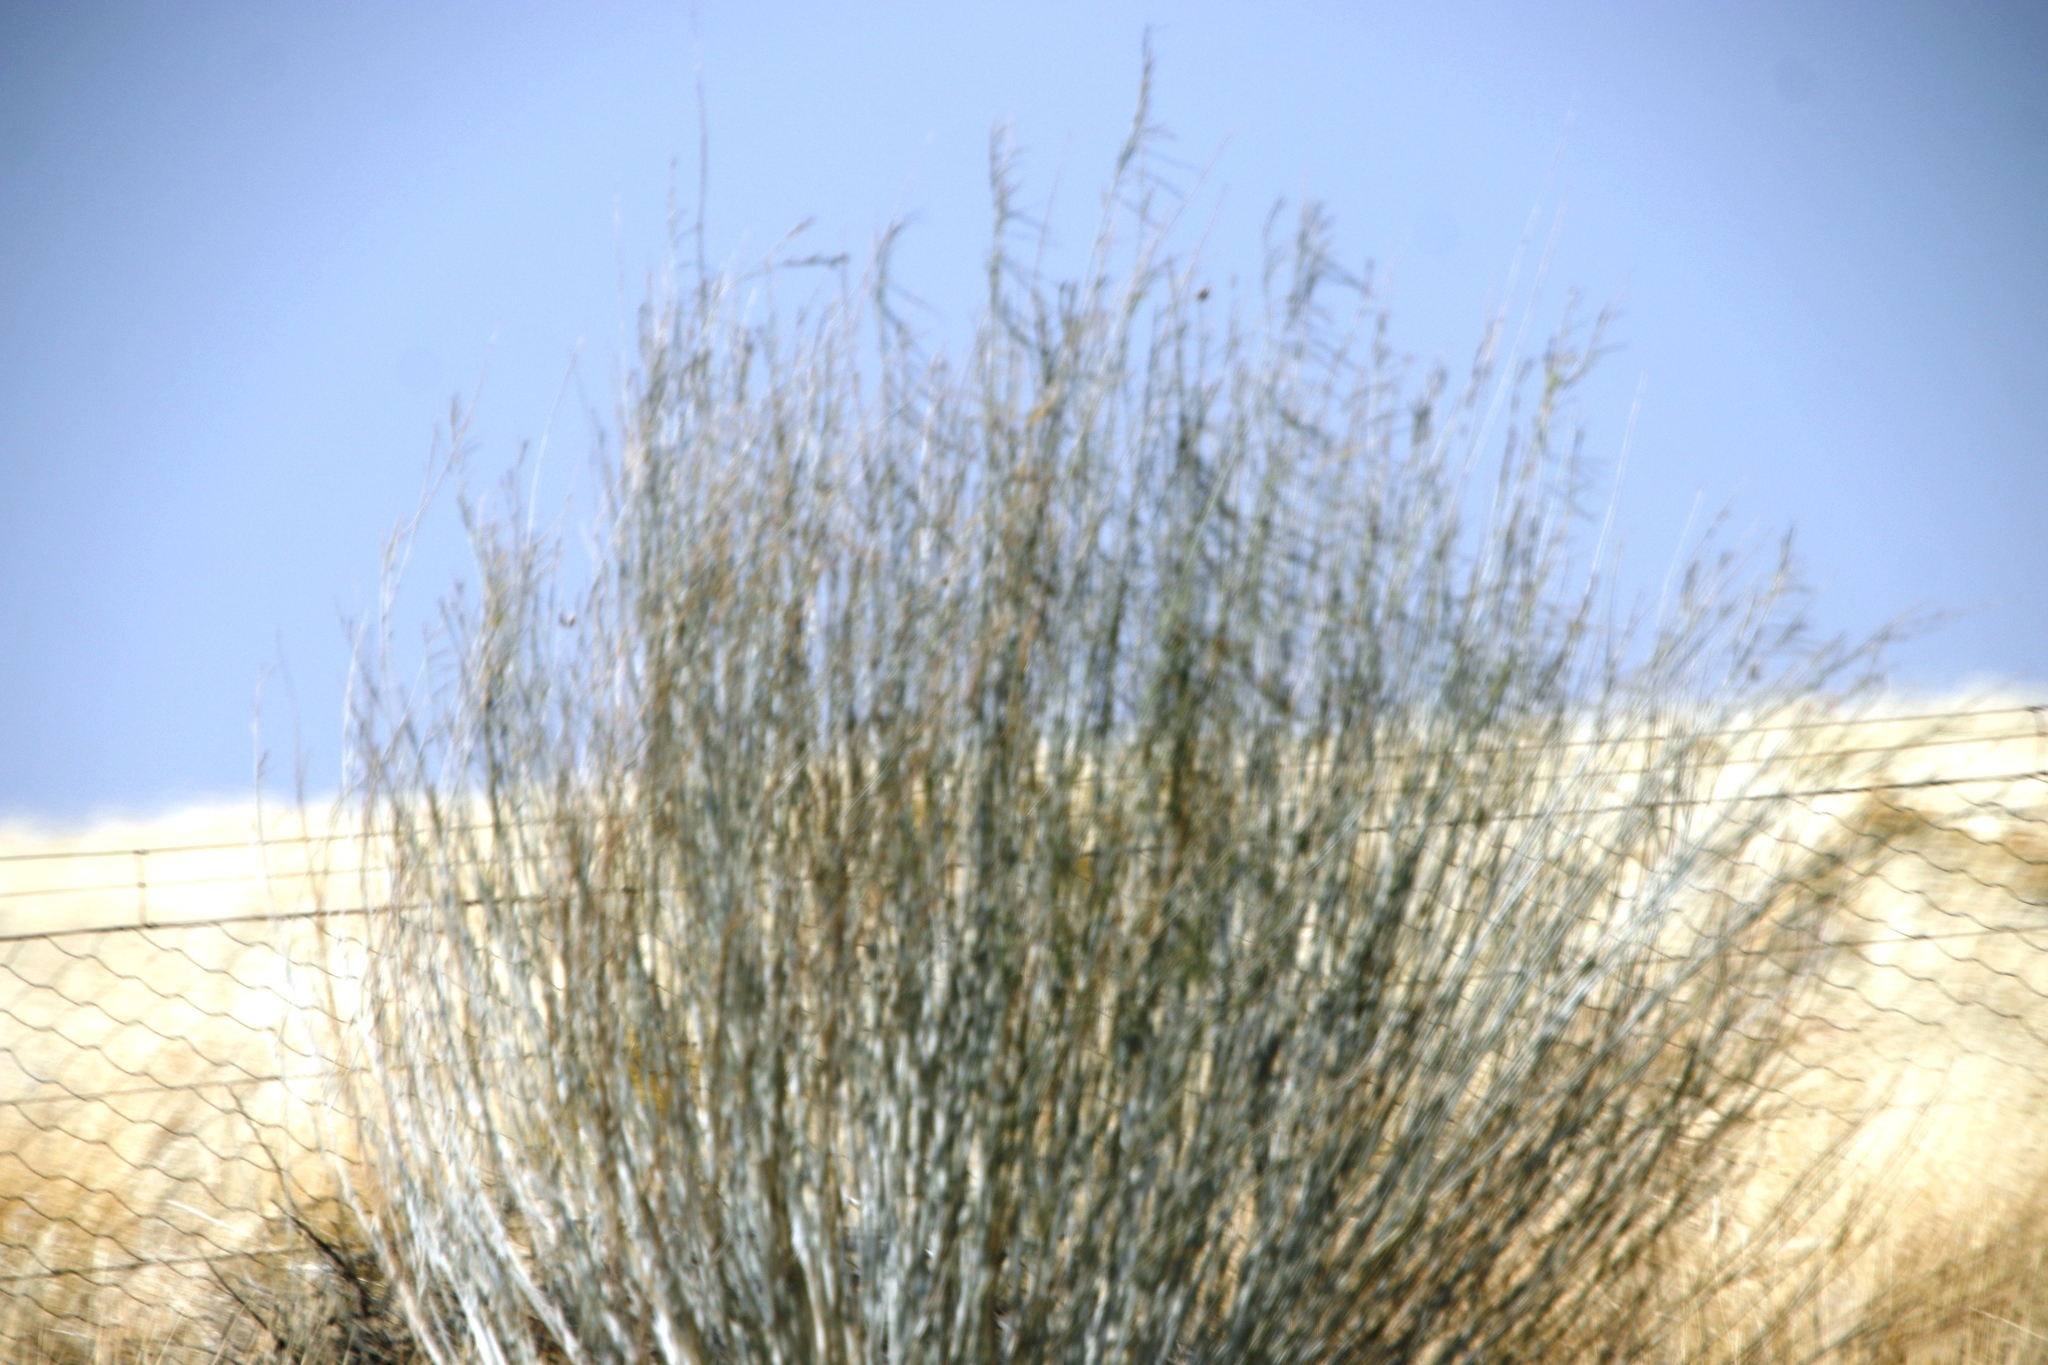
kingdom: Plantae
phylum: Tracheophyta
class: Magnoliopsida
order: Gentianales
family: Apocynaceae
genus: Gomphocarpus
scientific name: Gomphocarpus filiformis
